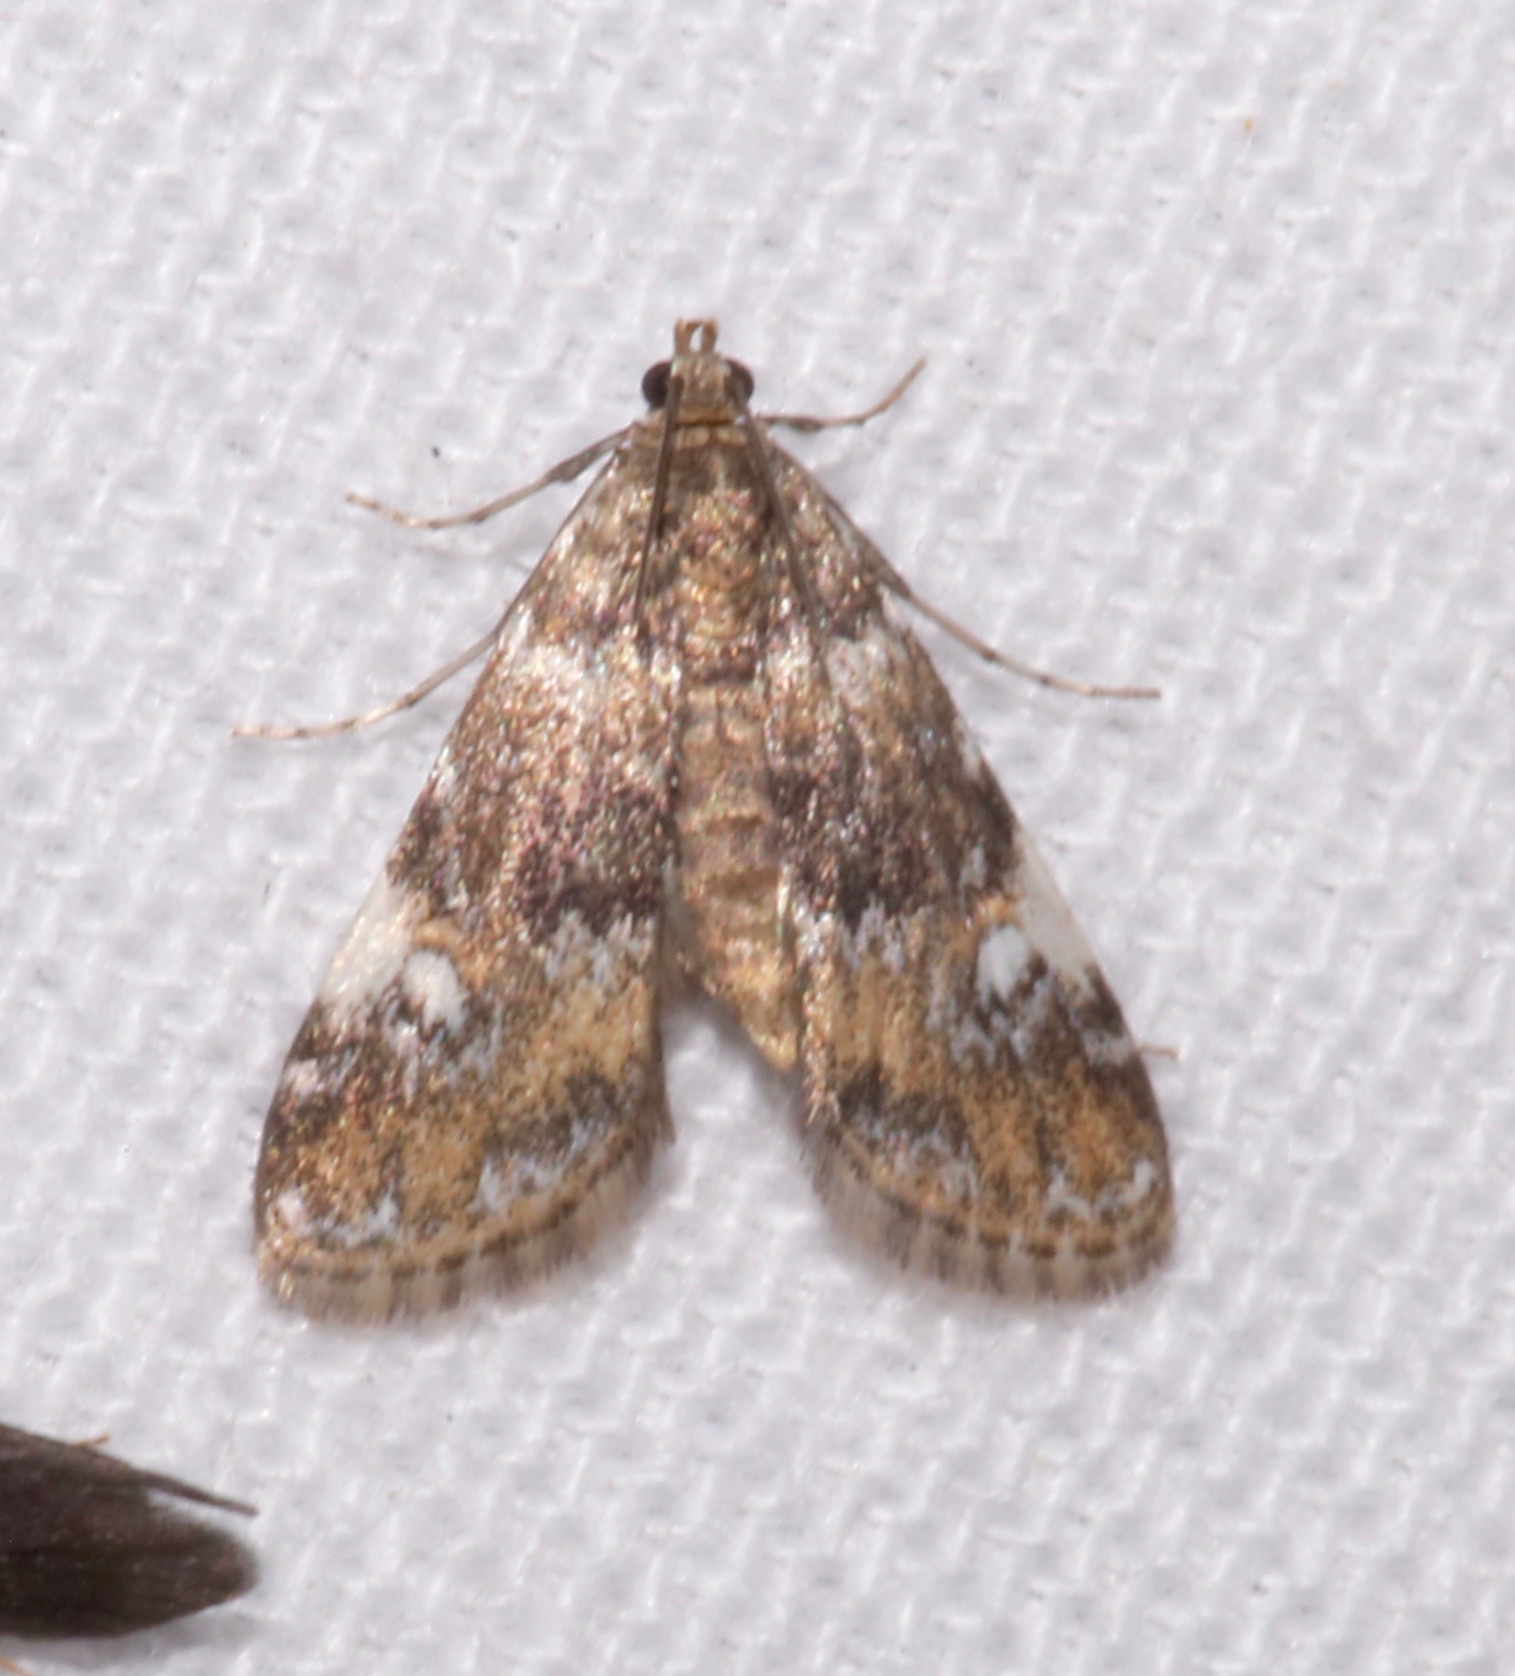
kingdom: Animalia
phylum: Arthropoda
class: Insecta
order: Lepidoptera
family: Crambidae
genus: Elophila
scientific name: Elophila obliteralis
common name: Waterlily leafcutter moth
